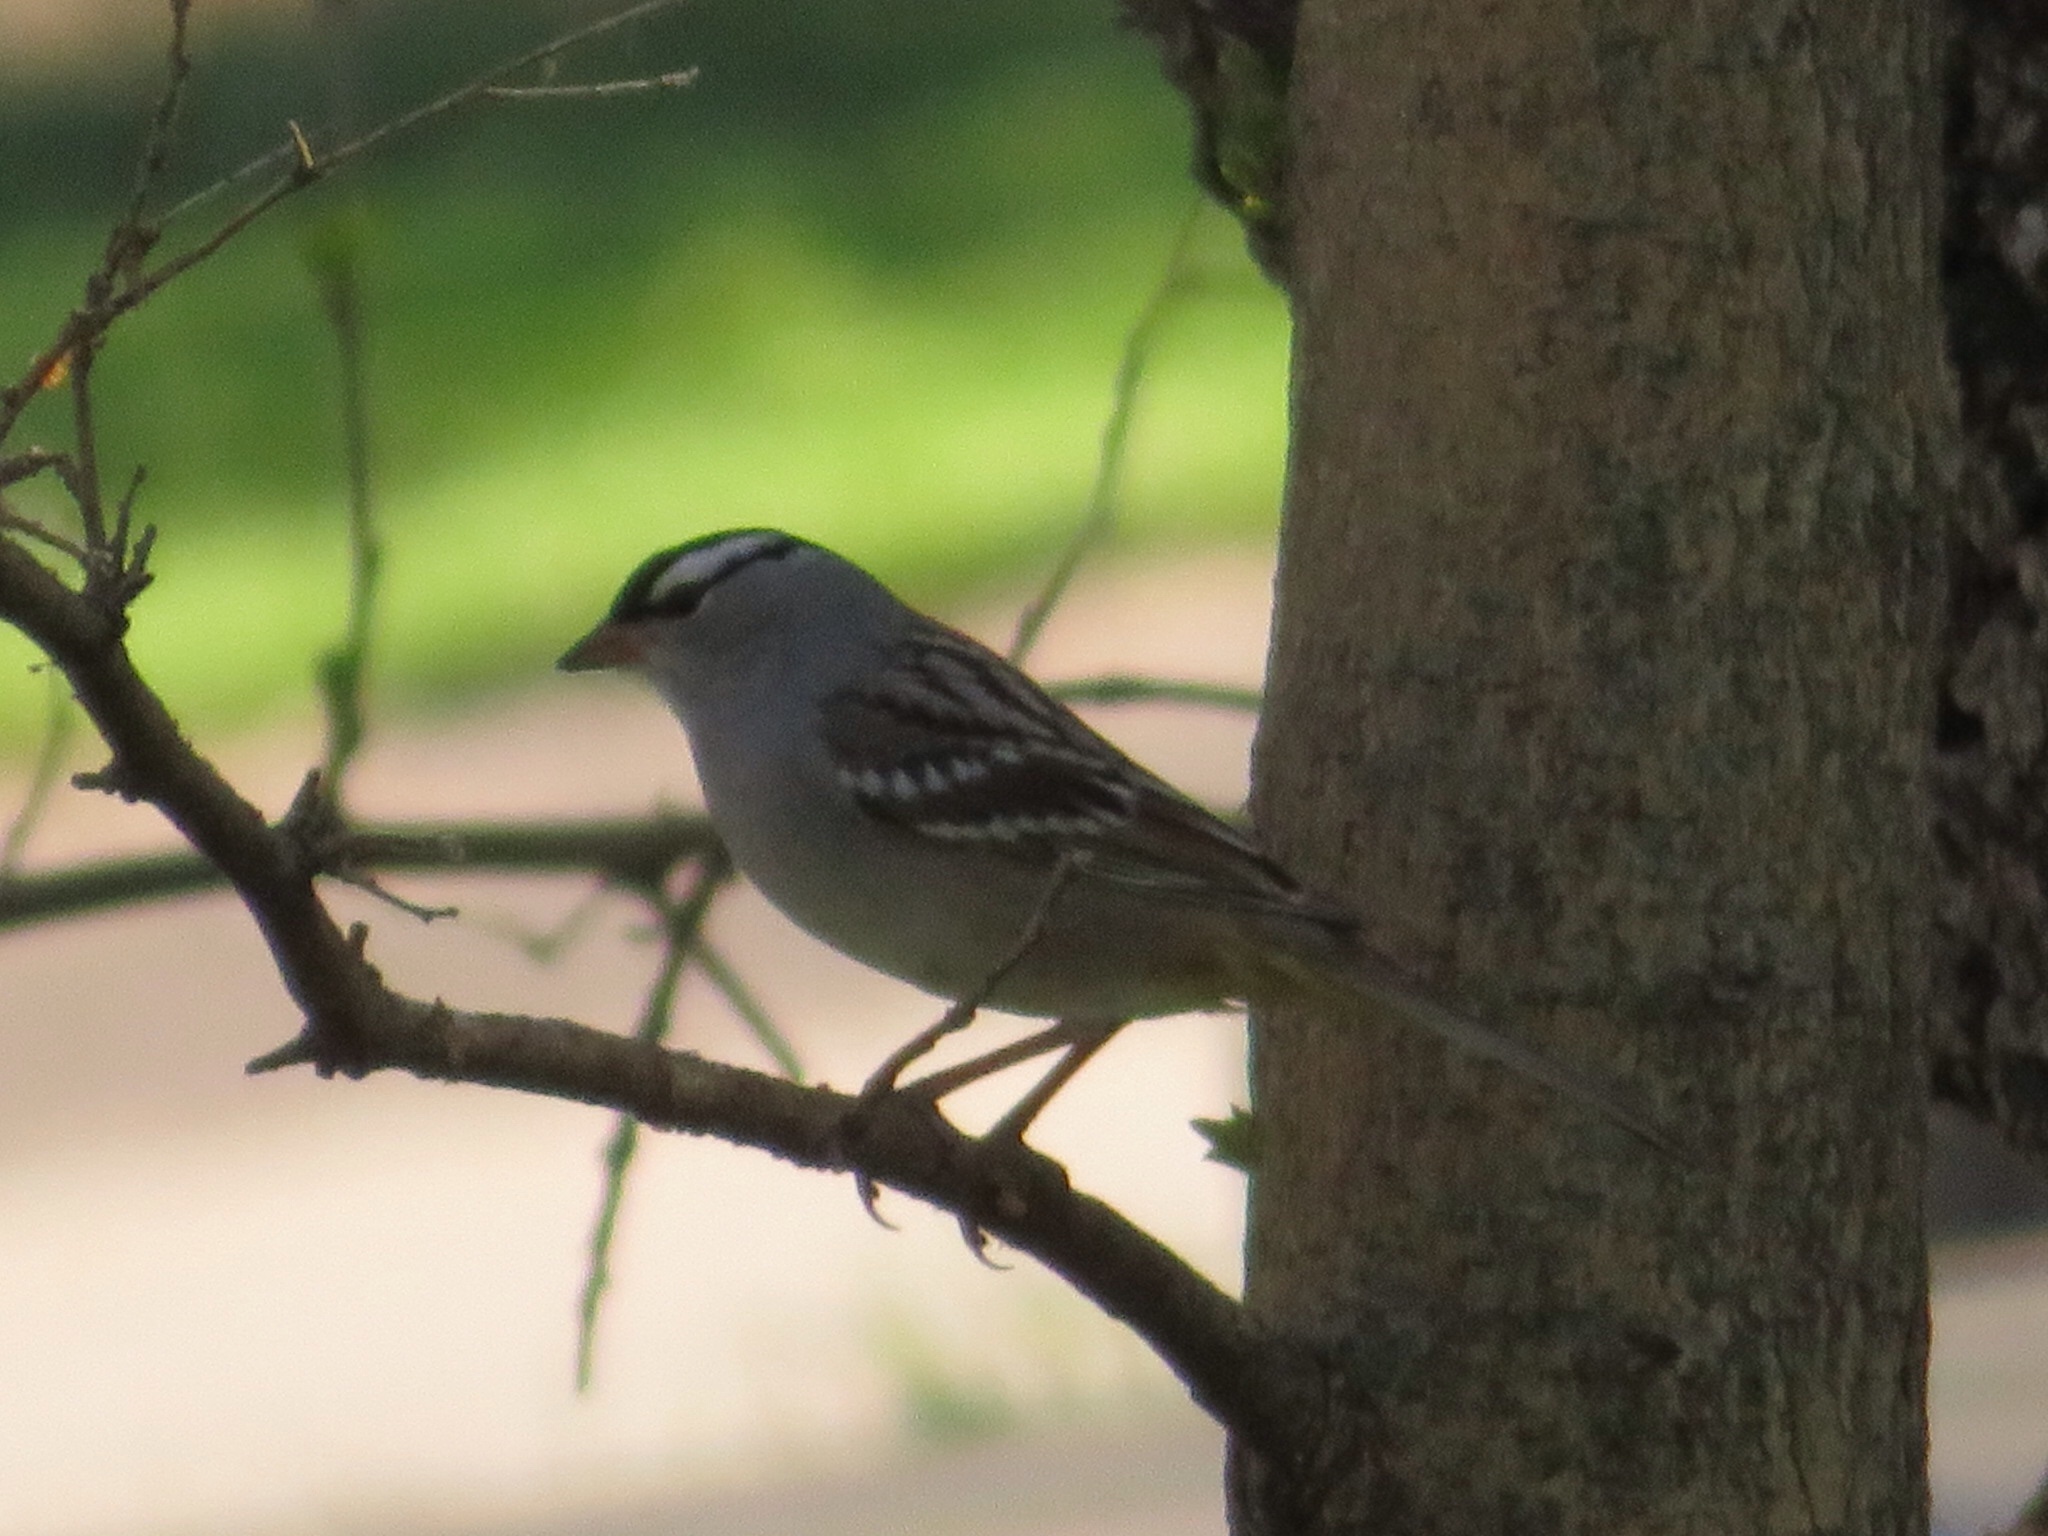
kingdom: Animalia
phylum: Chordata
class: Aves
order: Passeriformes
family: Passerellidae
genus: Zonotrichia
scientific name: Zonotrichia leucophrys
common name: White-crowned sparrow
